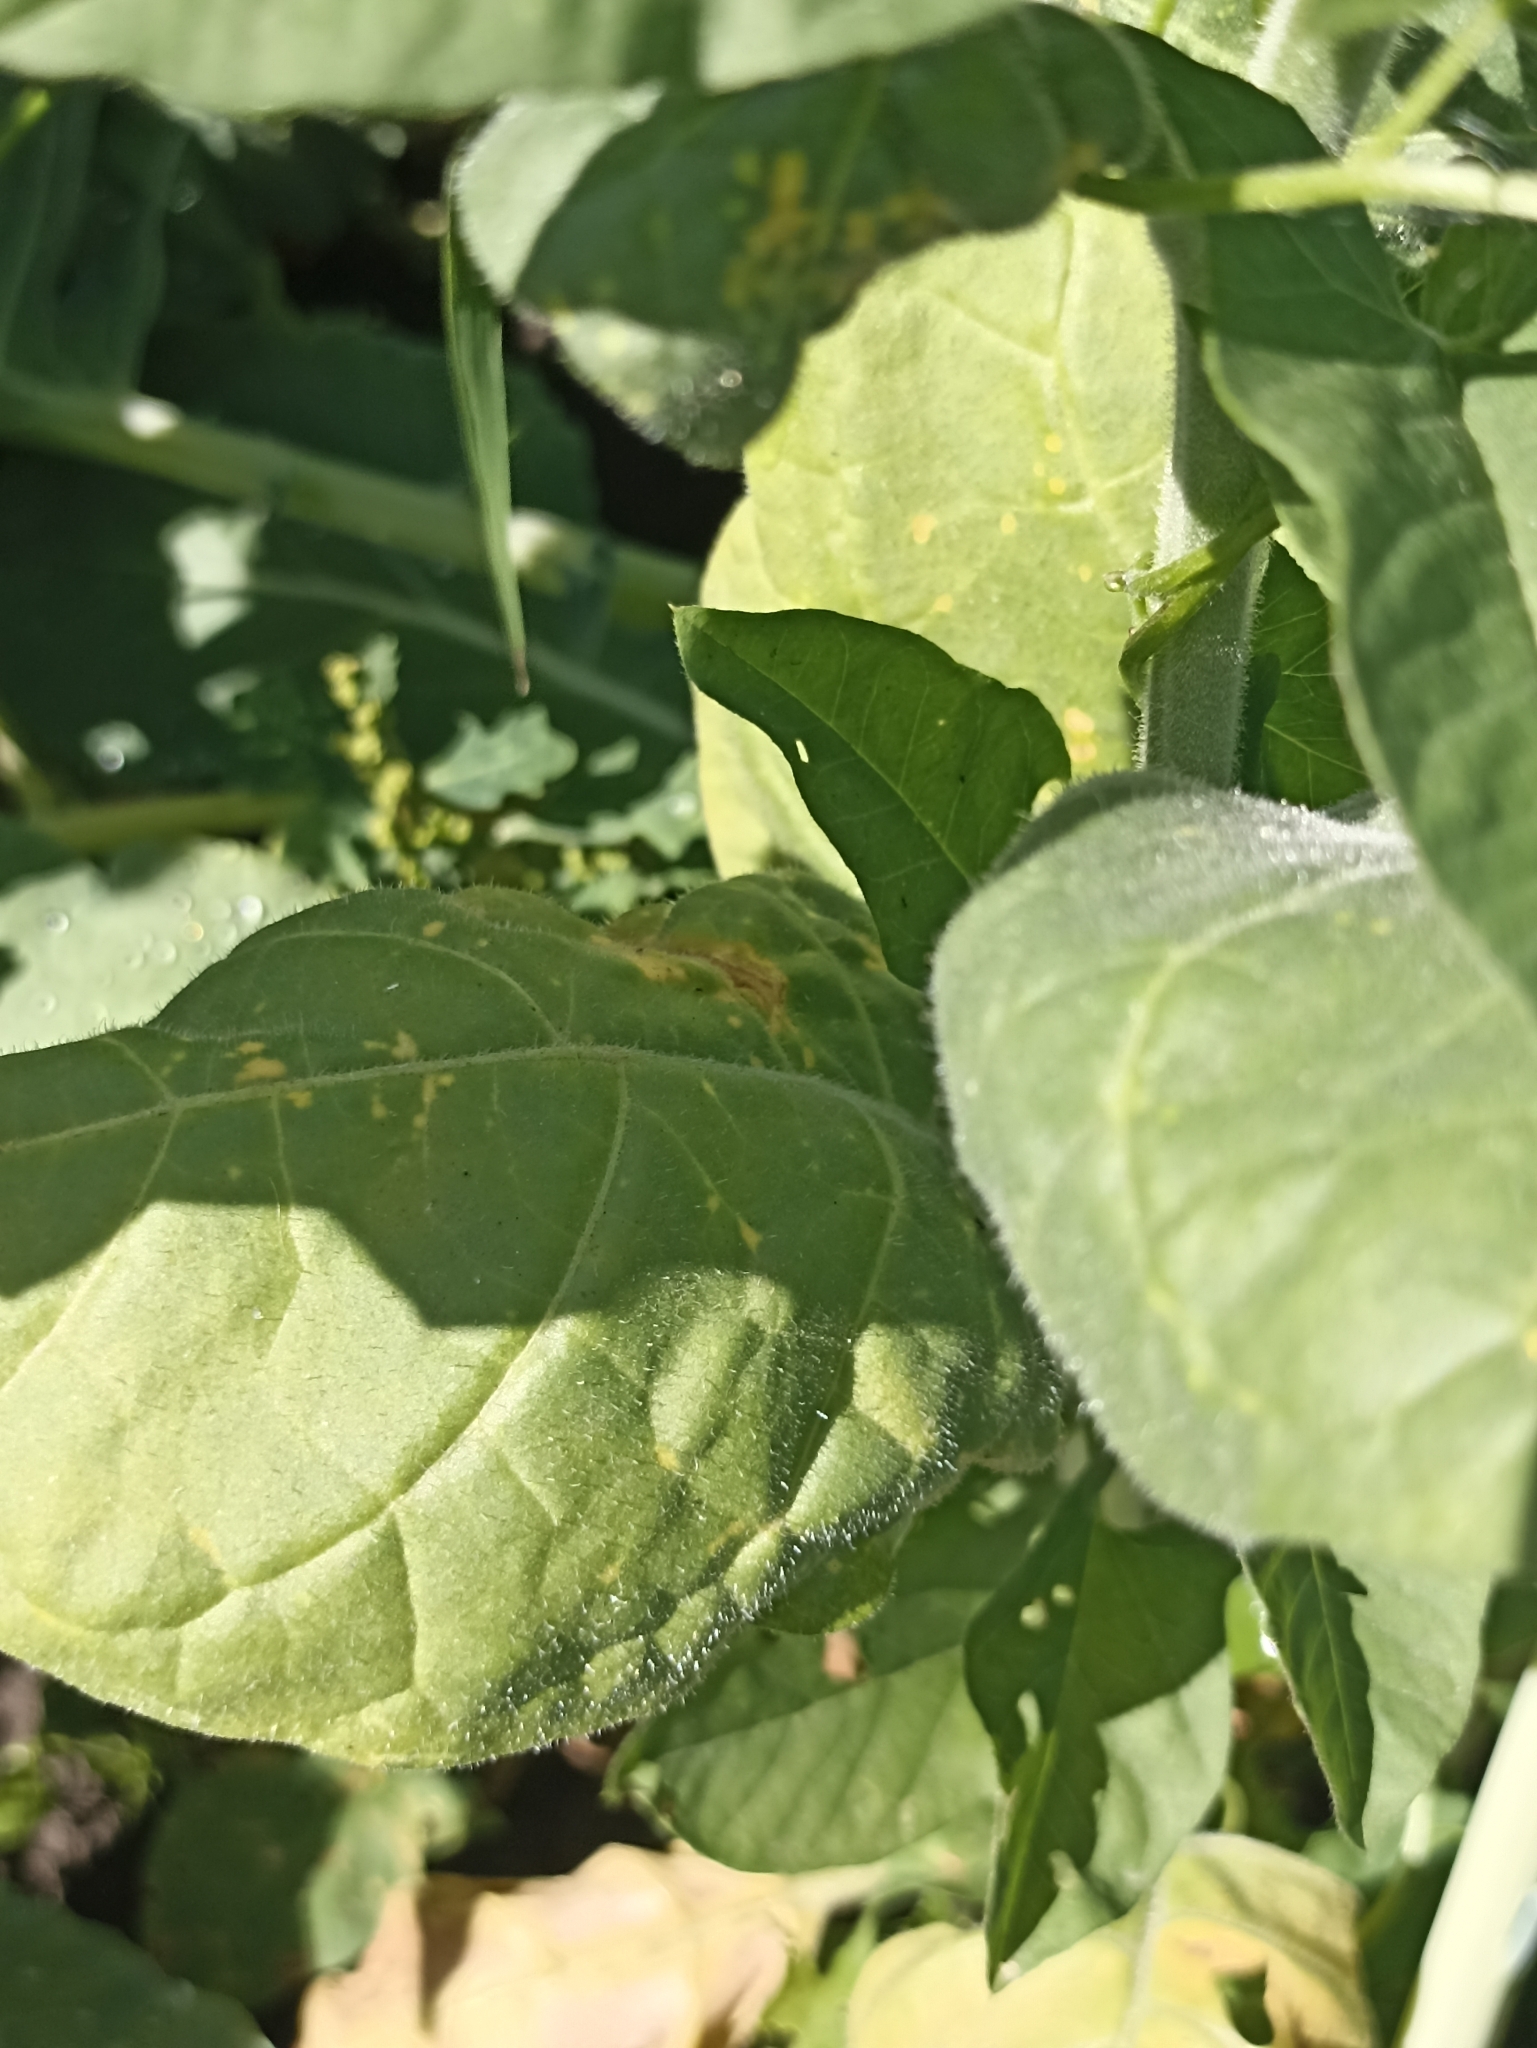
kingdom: Plantae
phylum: Tracheophyta
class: Magnoliopsida
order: Solanales
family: Solanaceae
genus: Nicotiana
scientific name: Nicotiana rustica
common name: Wild tobacco
